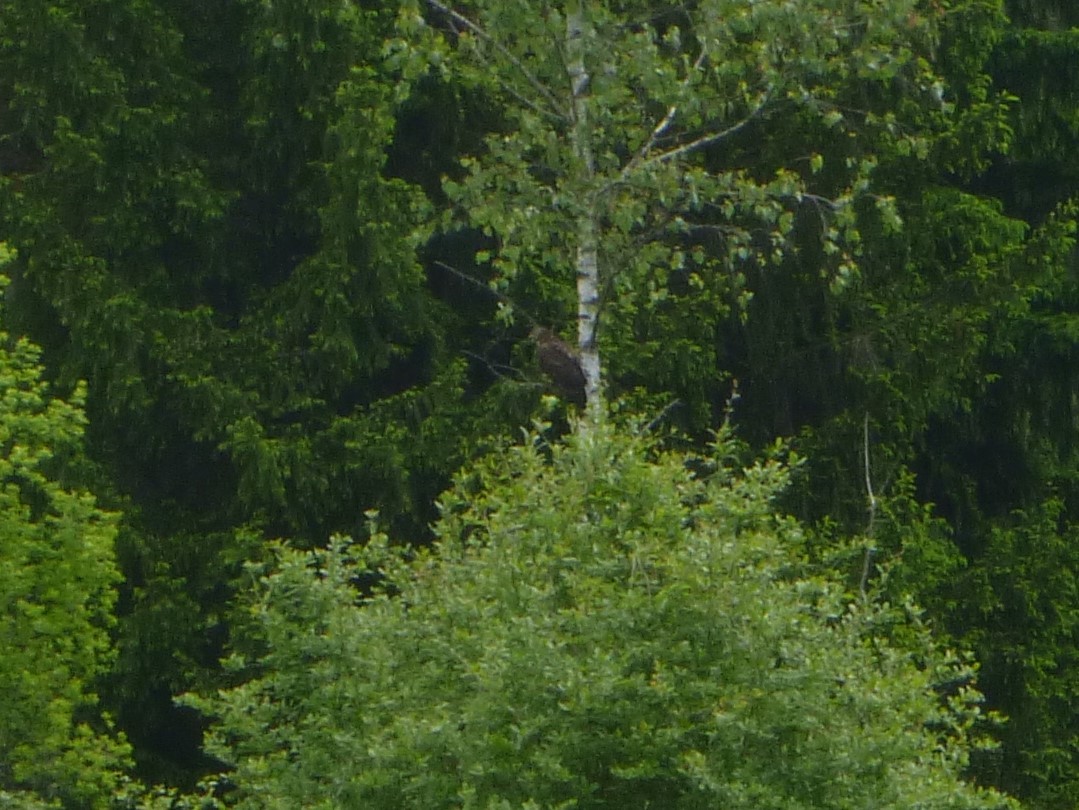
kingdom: Animalia
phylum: Chordata
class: Aves
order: Accipitriformes
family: Accipitridae
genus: Buteo
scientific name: Buteo buteo
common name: Common buzzard
